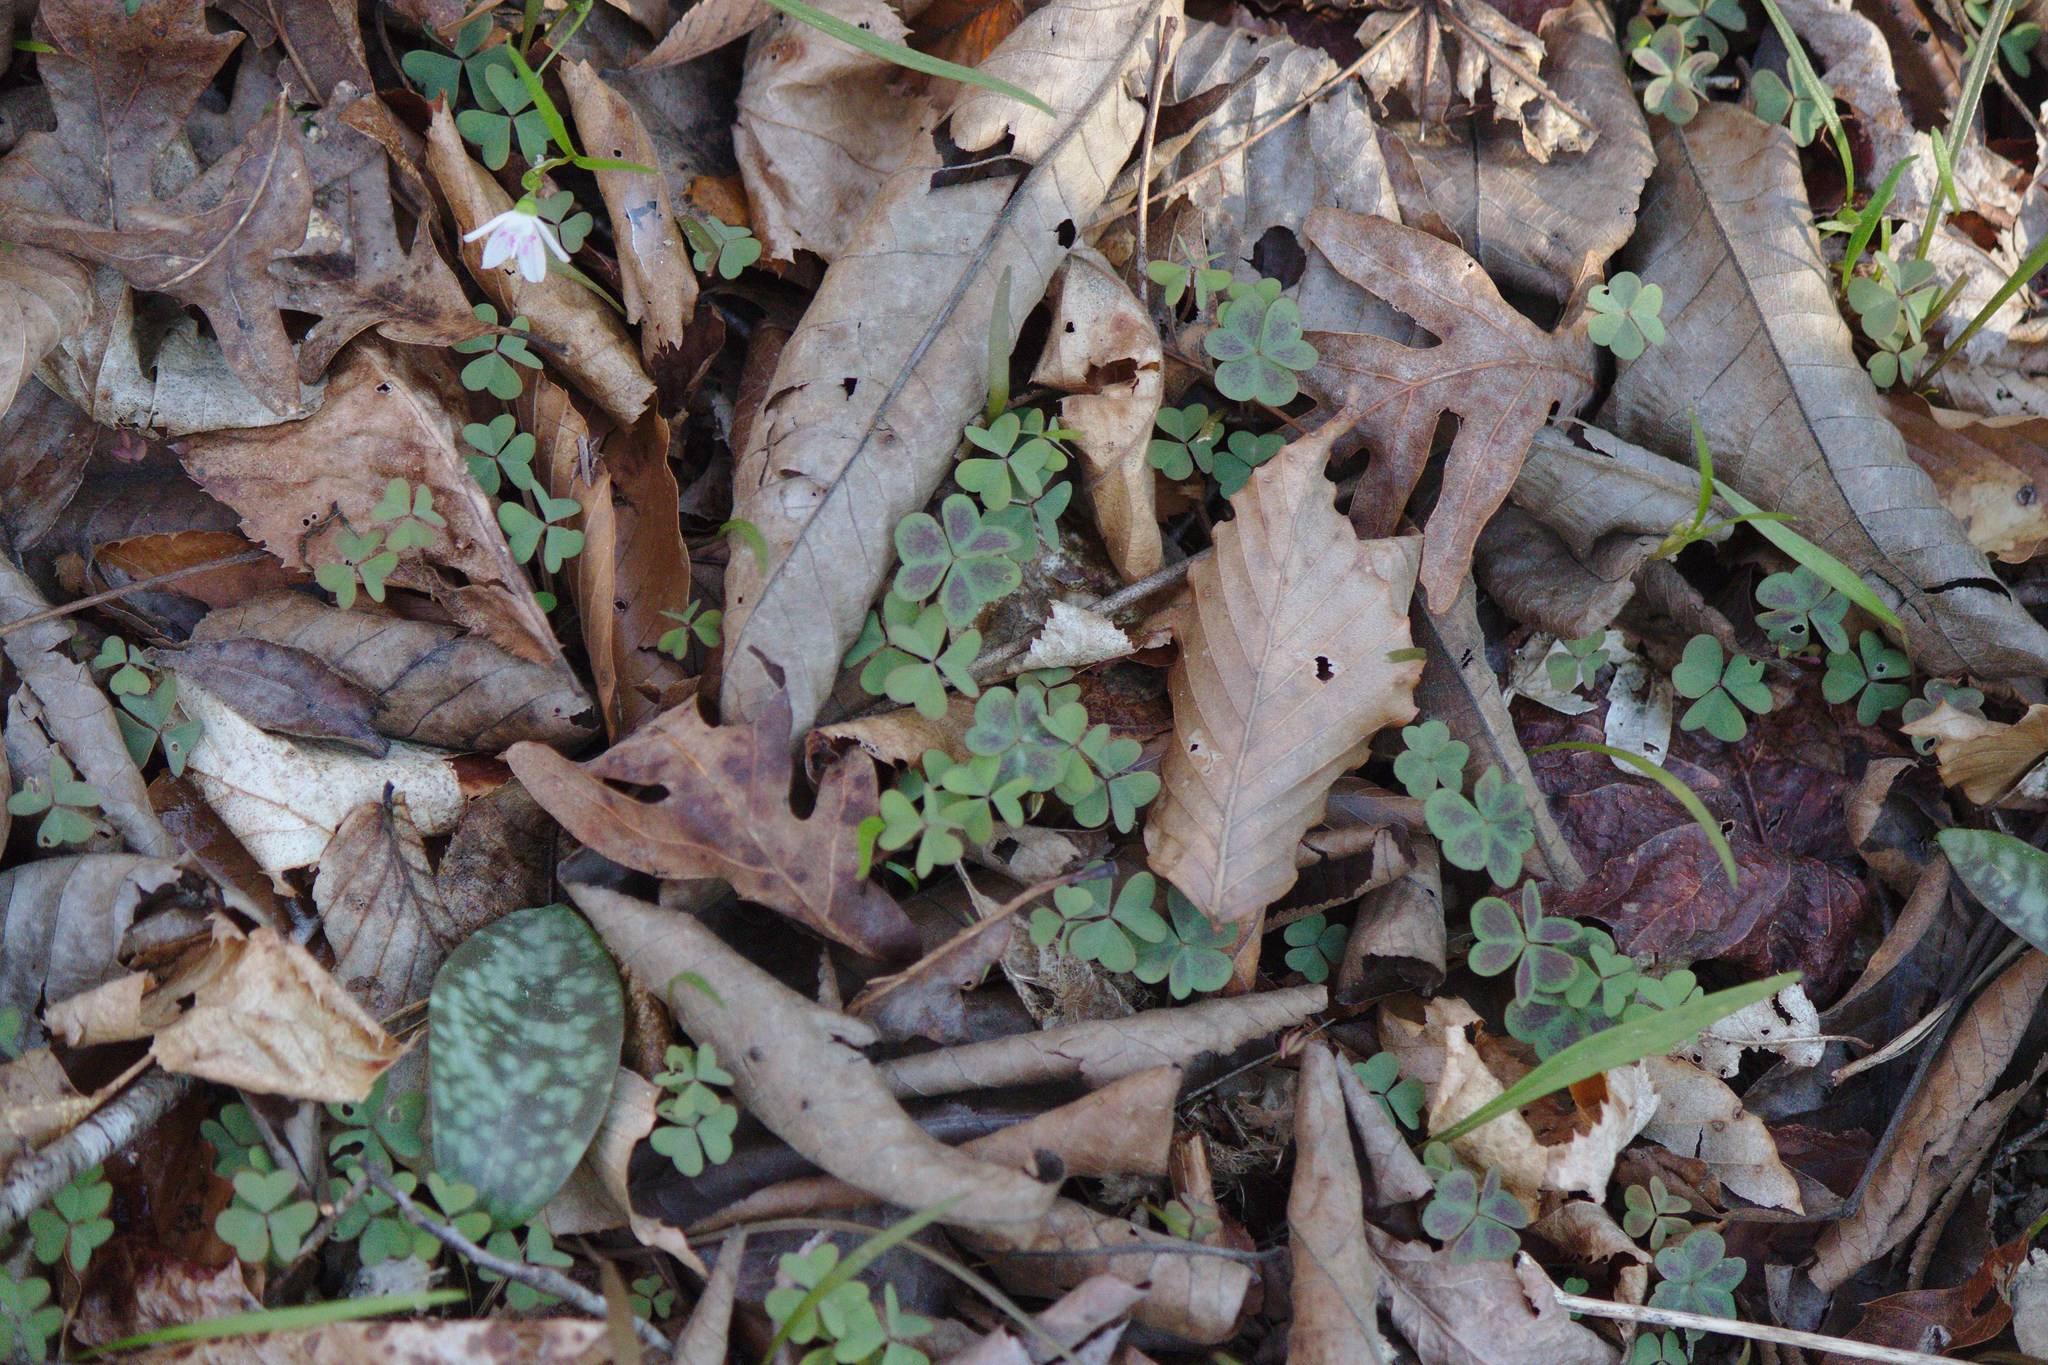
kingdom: Plantae
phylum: Tracheophyta
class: Magnoliopsida
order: Oxalidales
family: Oxalidaceae
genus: Oxalis
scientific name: Oxalis violacea
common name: Violet wood-sorrel
